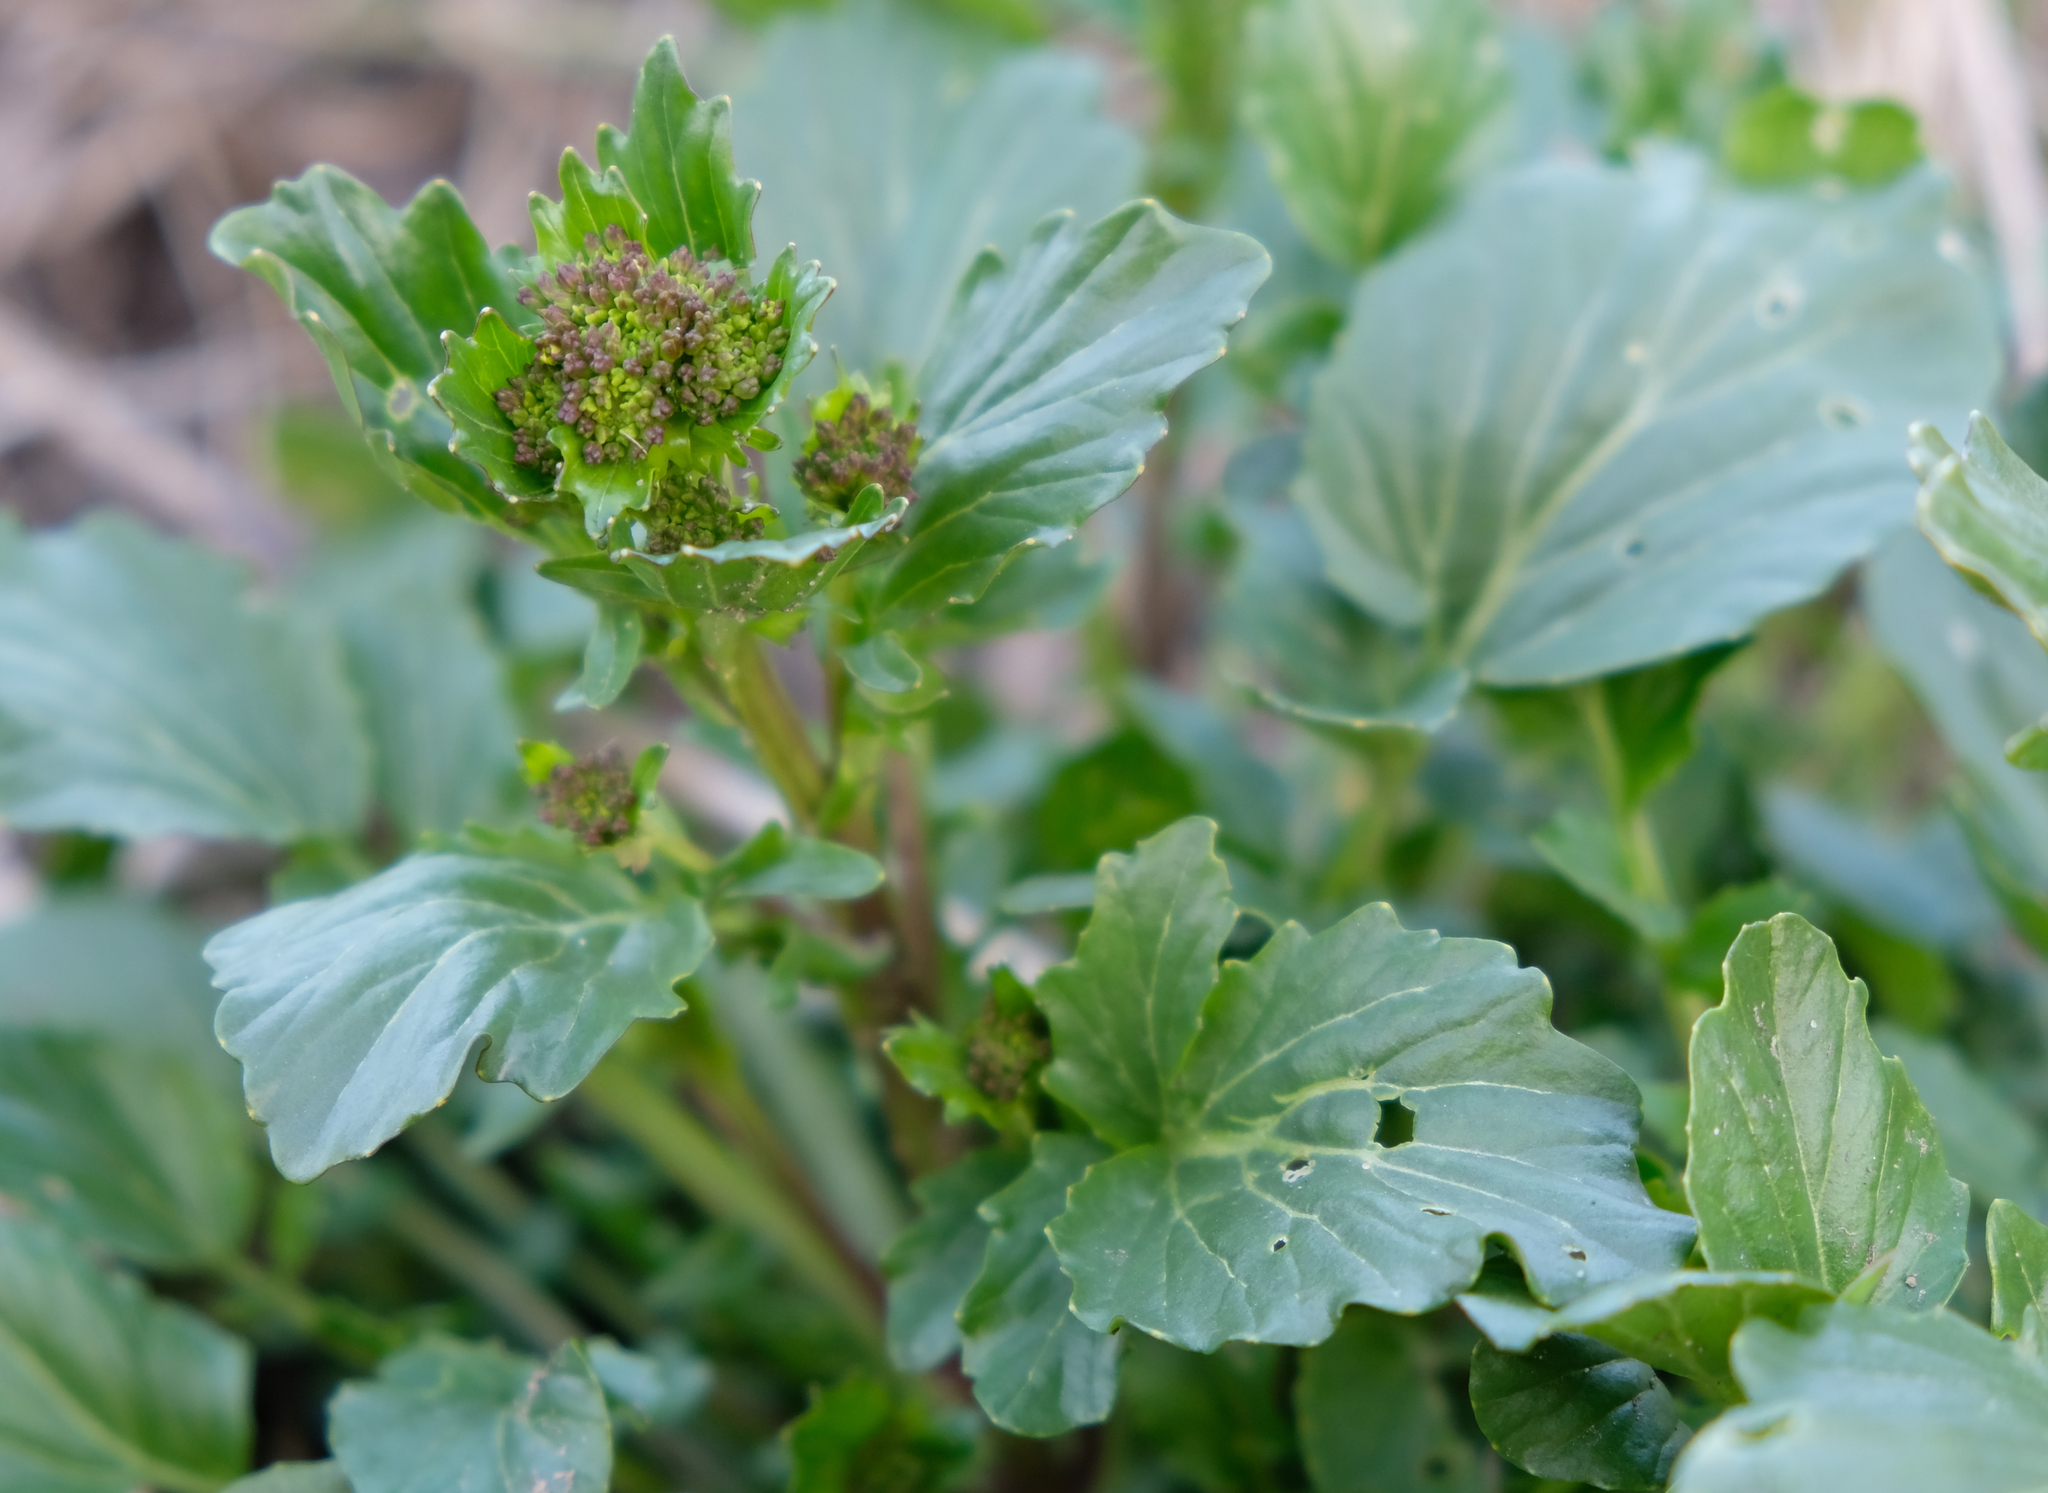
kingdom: Plantae
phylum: Tracheophyta
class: Magnoliopsida
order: Brassicales
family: Brassicaceae
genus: Barbarea
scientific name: Barbarea vulgaris
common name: Cressy-greens
